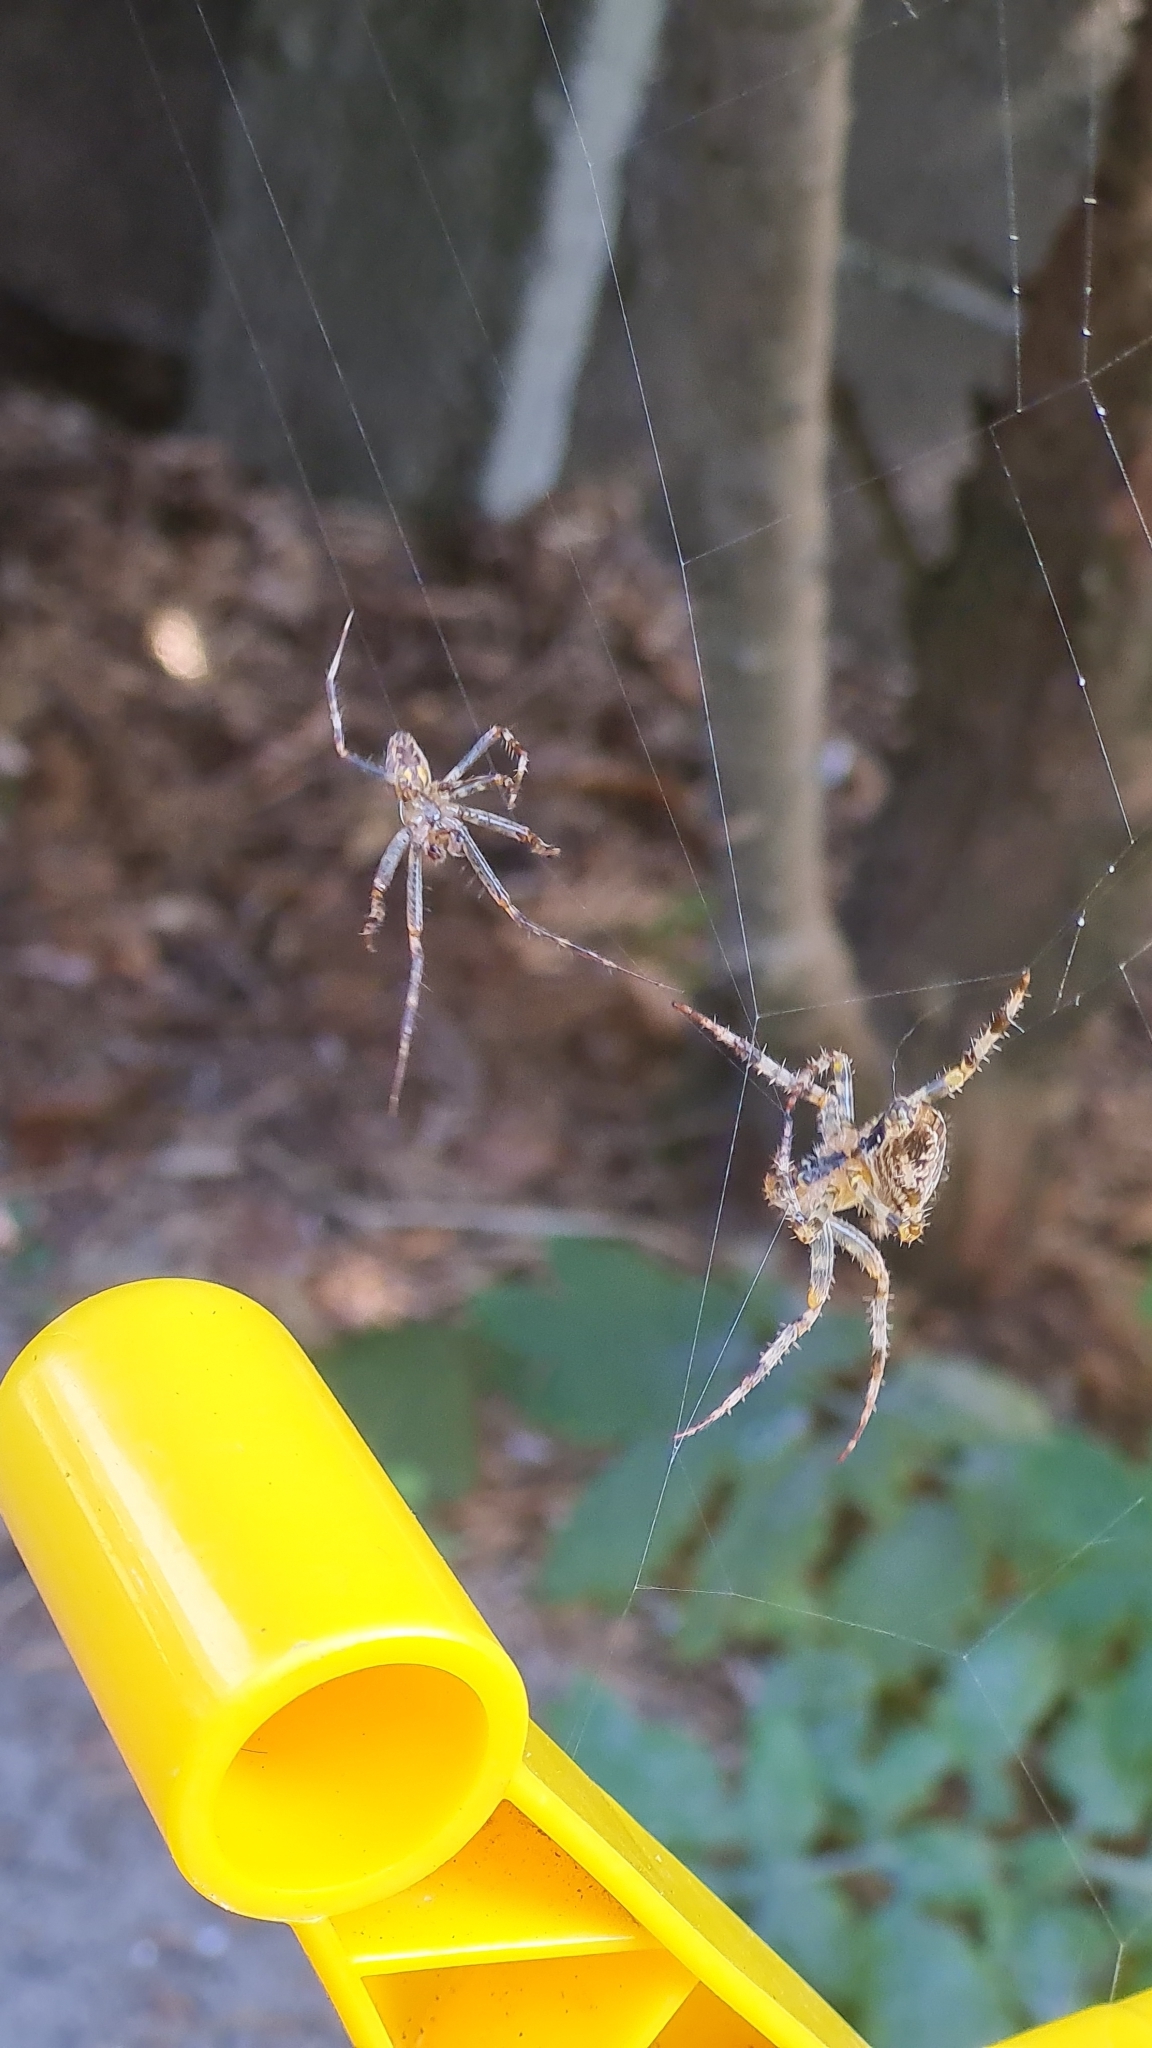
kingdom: Animalia
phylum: Arthropoda
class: Arachnida
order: Araneae
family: Araneidae
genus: Araneus
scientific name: Araneus diadematus
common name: Cross orbweaver
